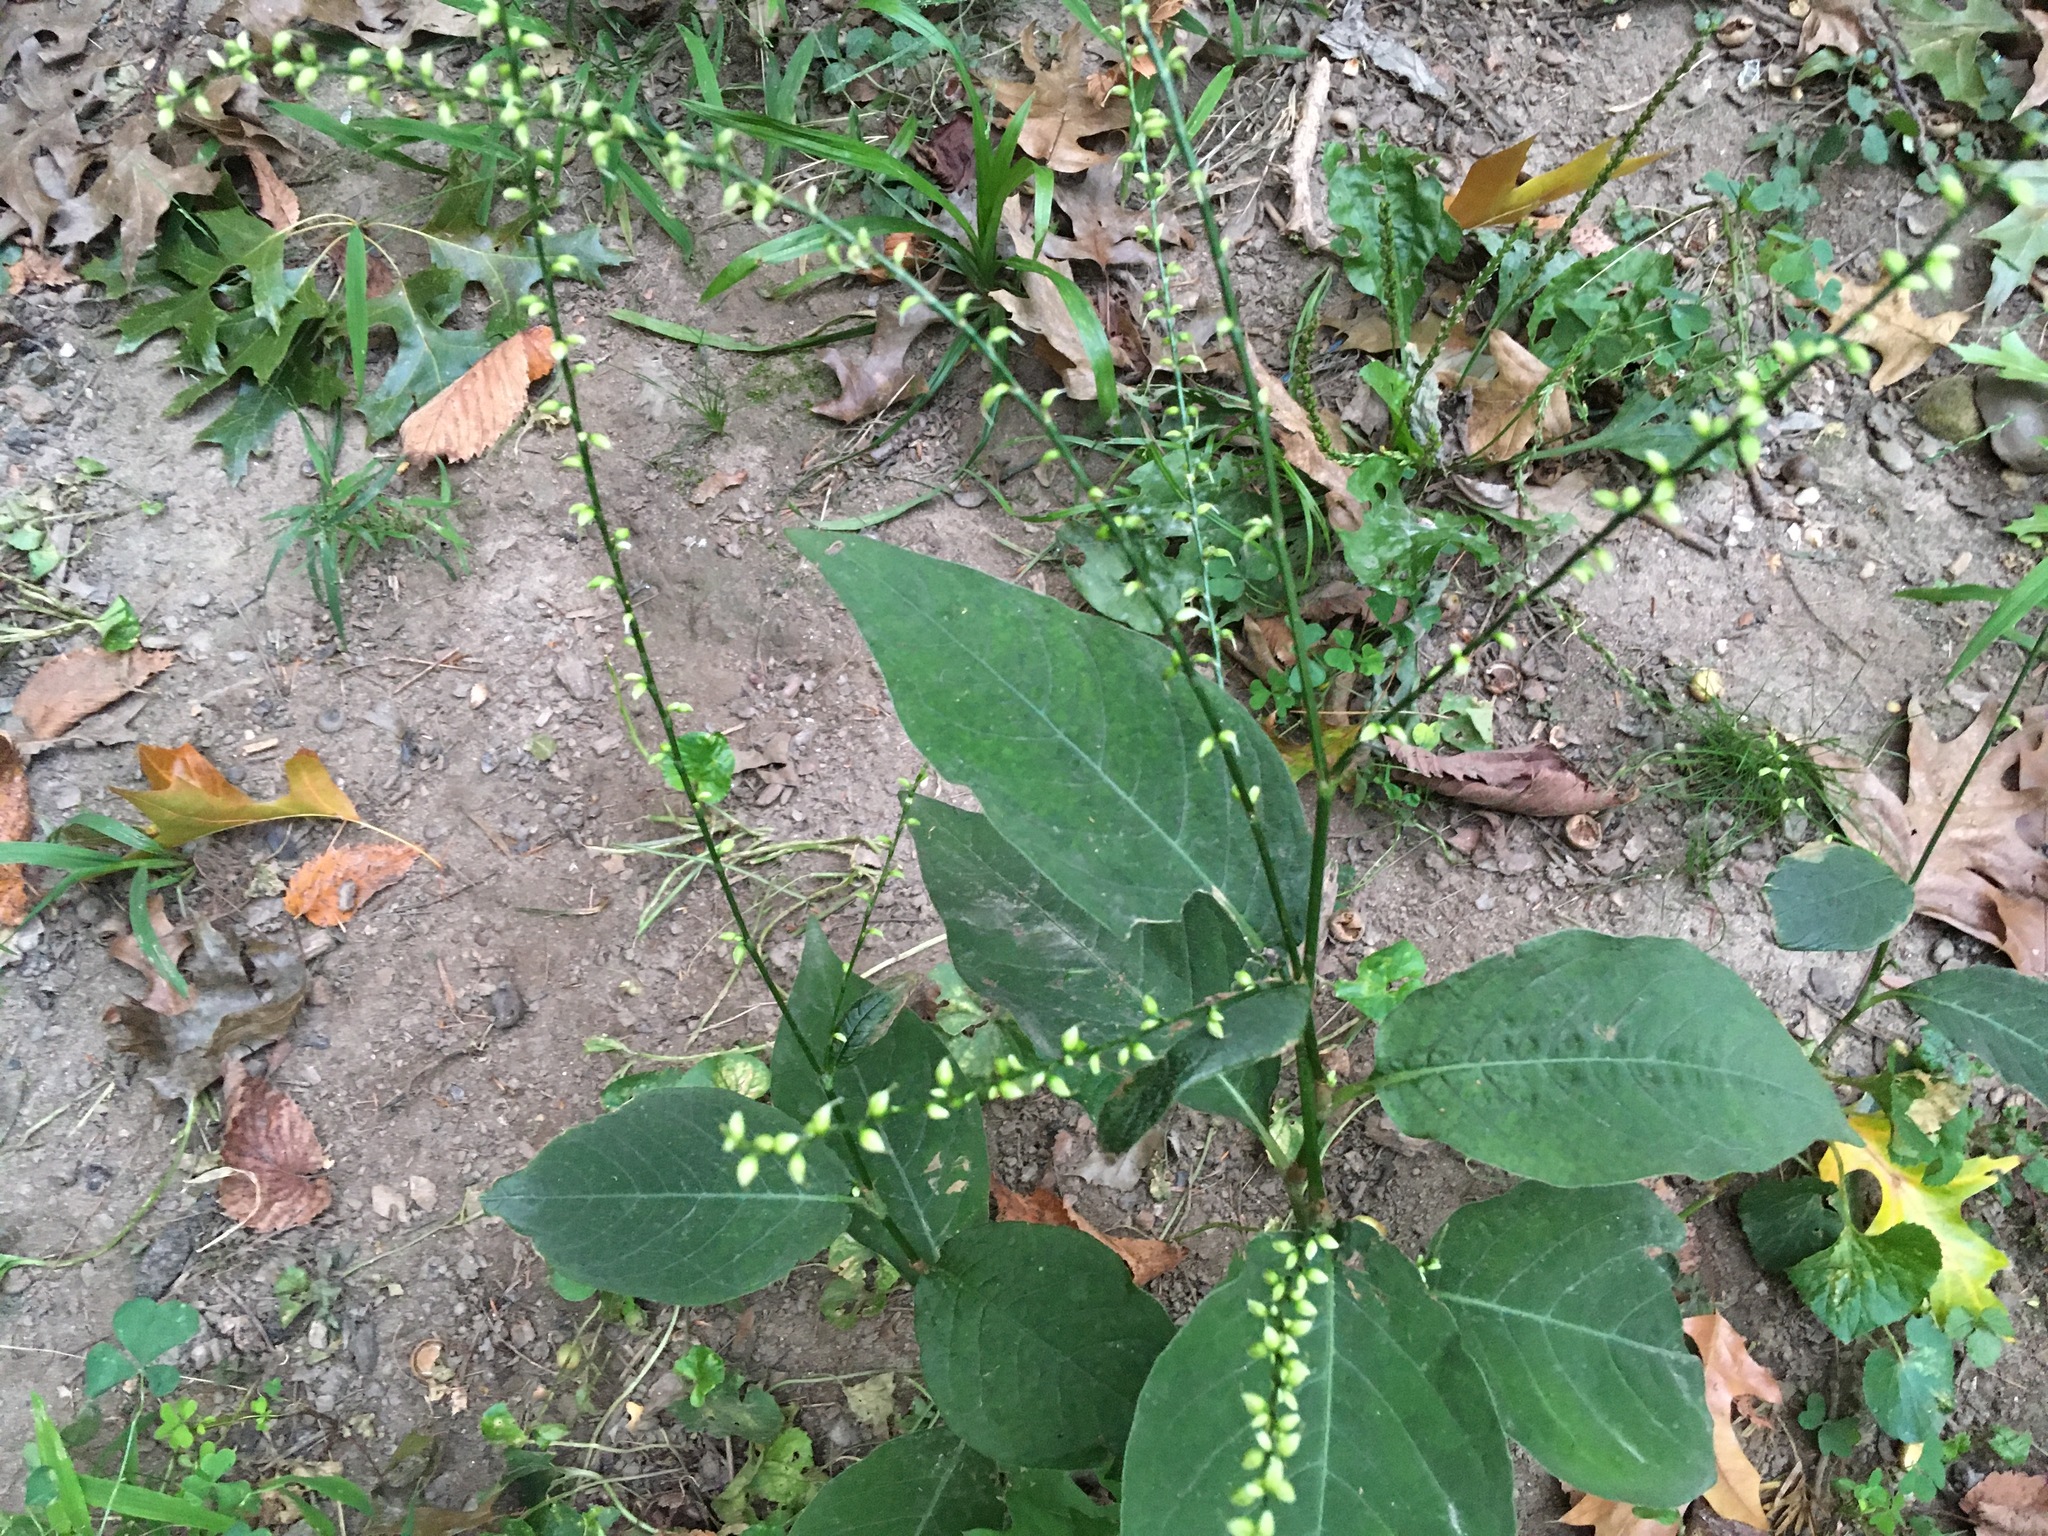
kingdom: Plantae
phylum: Tracheophyta
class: Magnoliopsida
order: Caryophyllales
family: Polygonaceae
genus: Persicaria
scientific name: Persicaria virginiana
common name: Jumpseed
